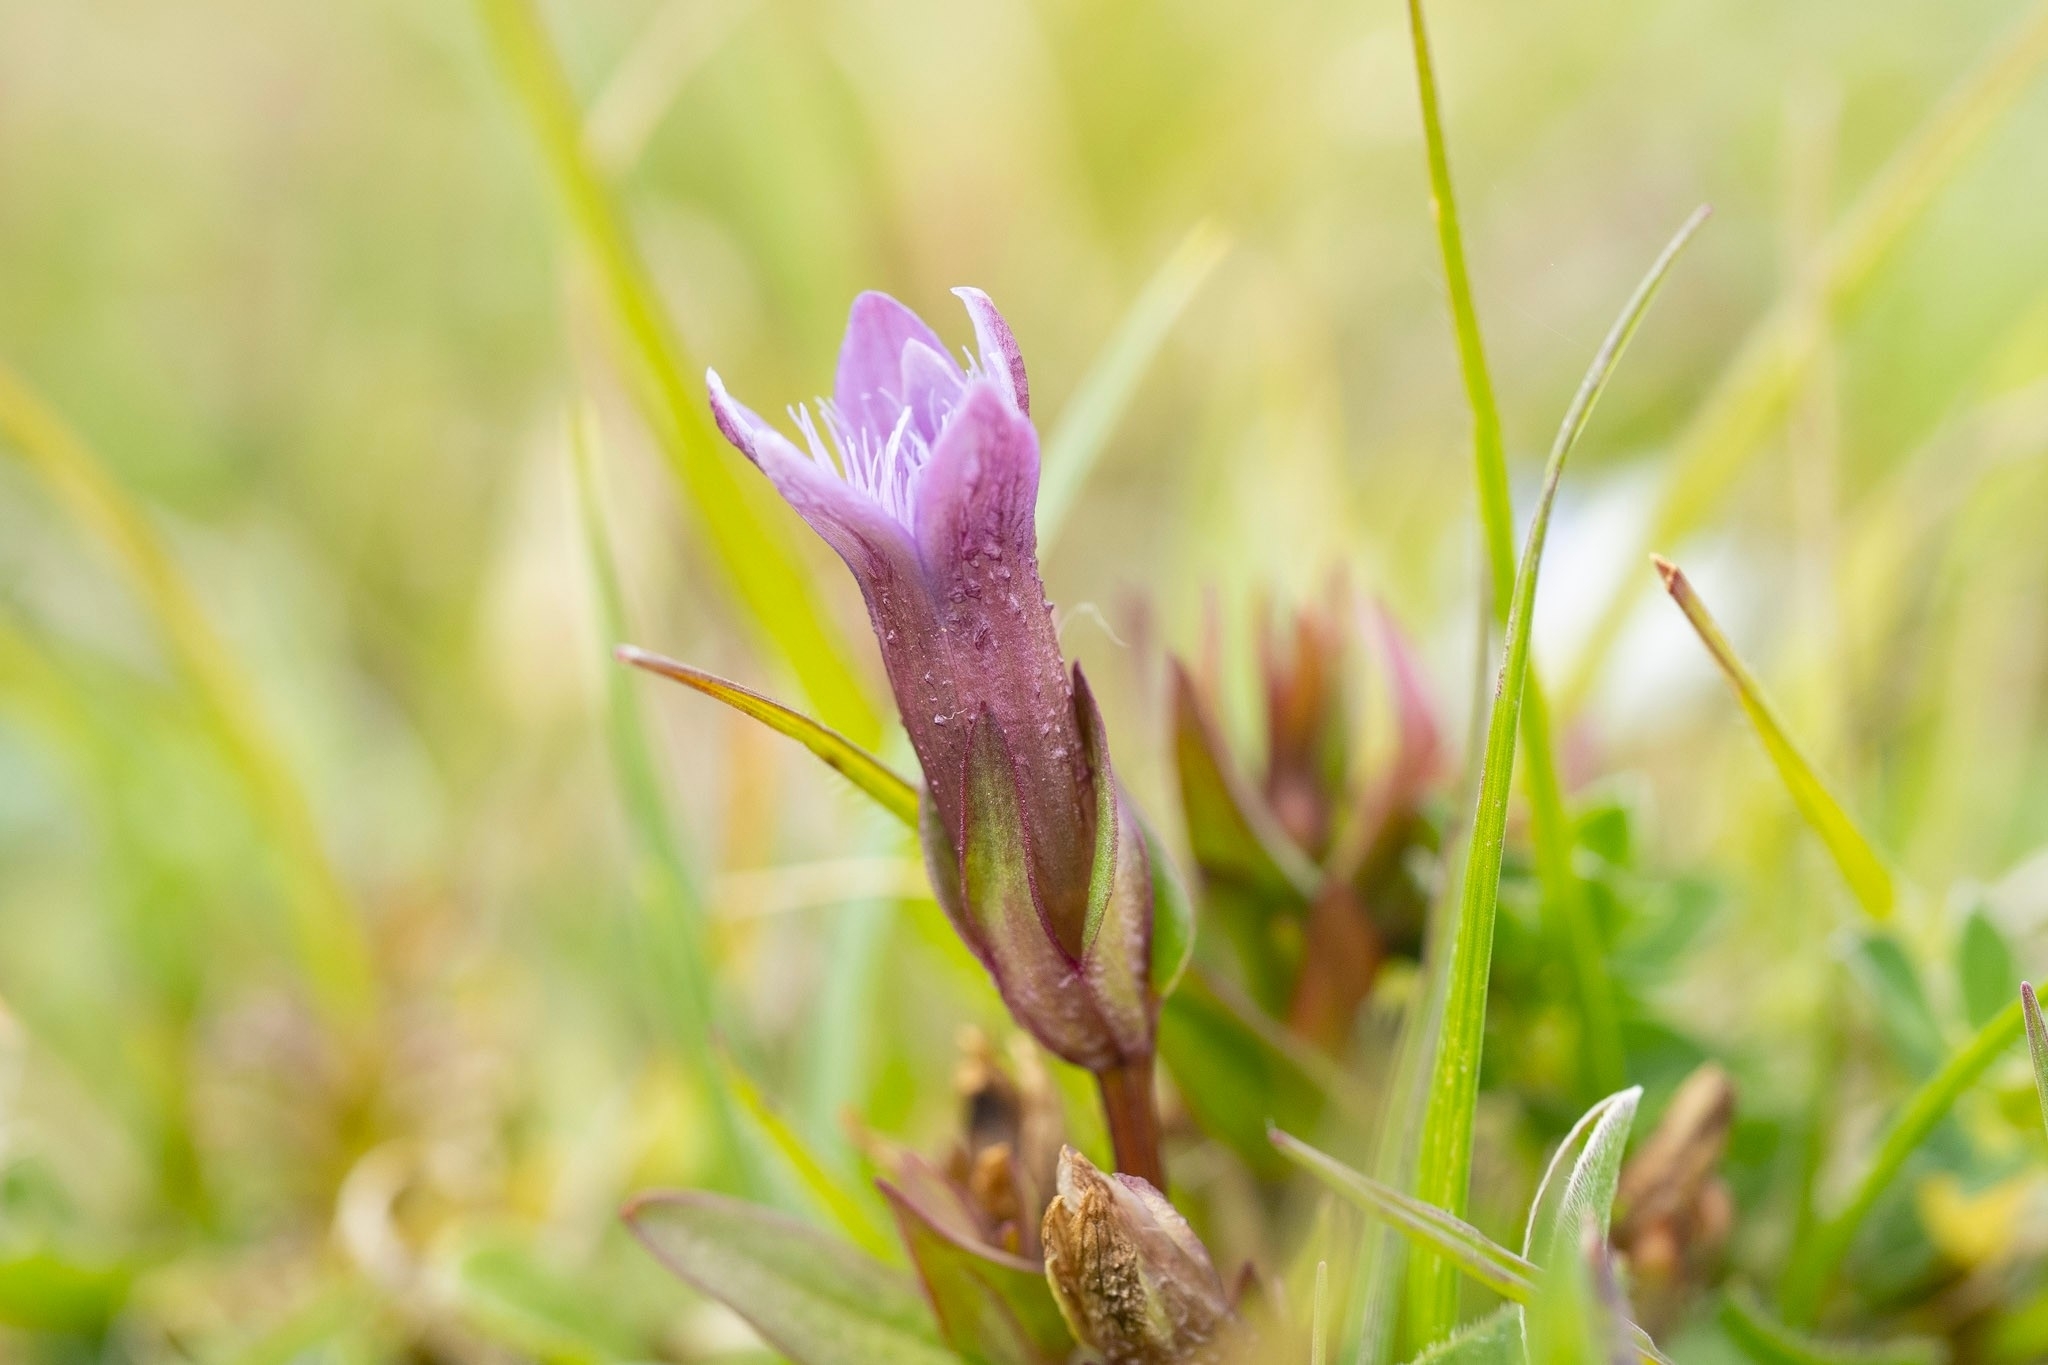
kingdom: Plantae
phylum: Tracheophyta
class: Magnoliopsida
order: Gentianales
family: Gentianaceae
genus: Gentianella
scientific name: Gentianella uliginosa
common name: Dune gentian
